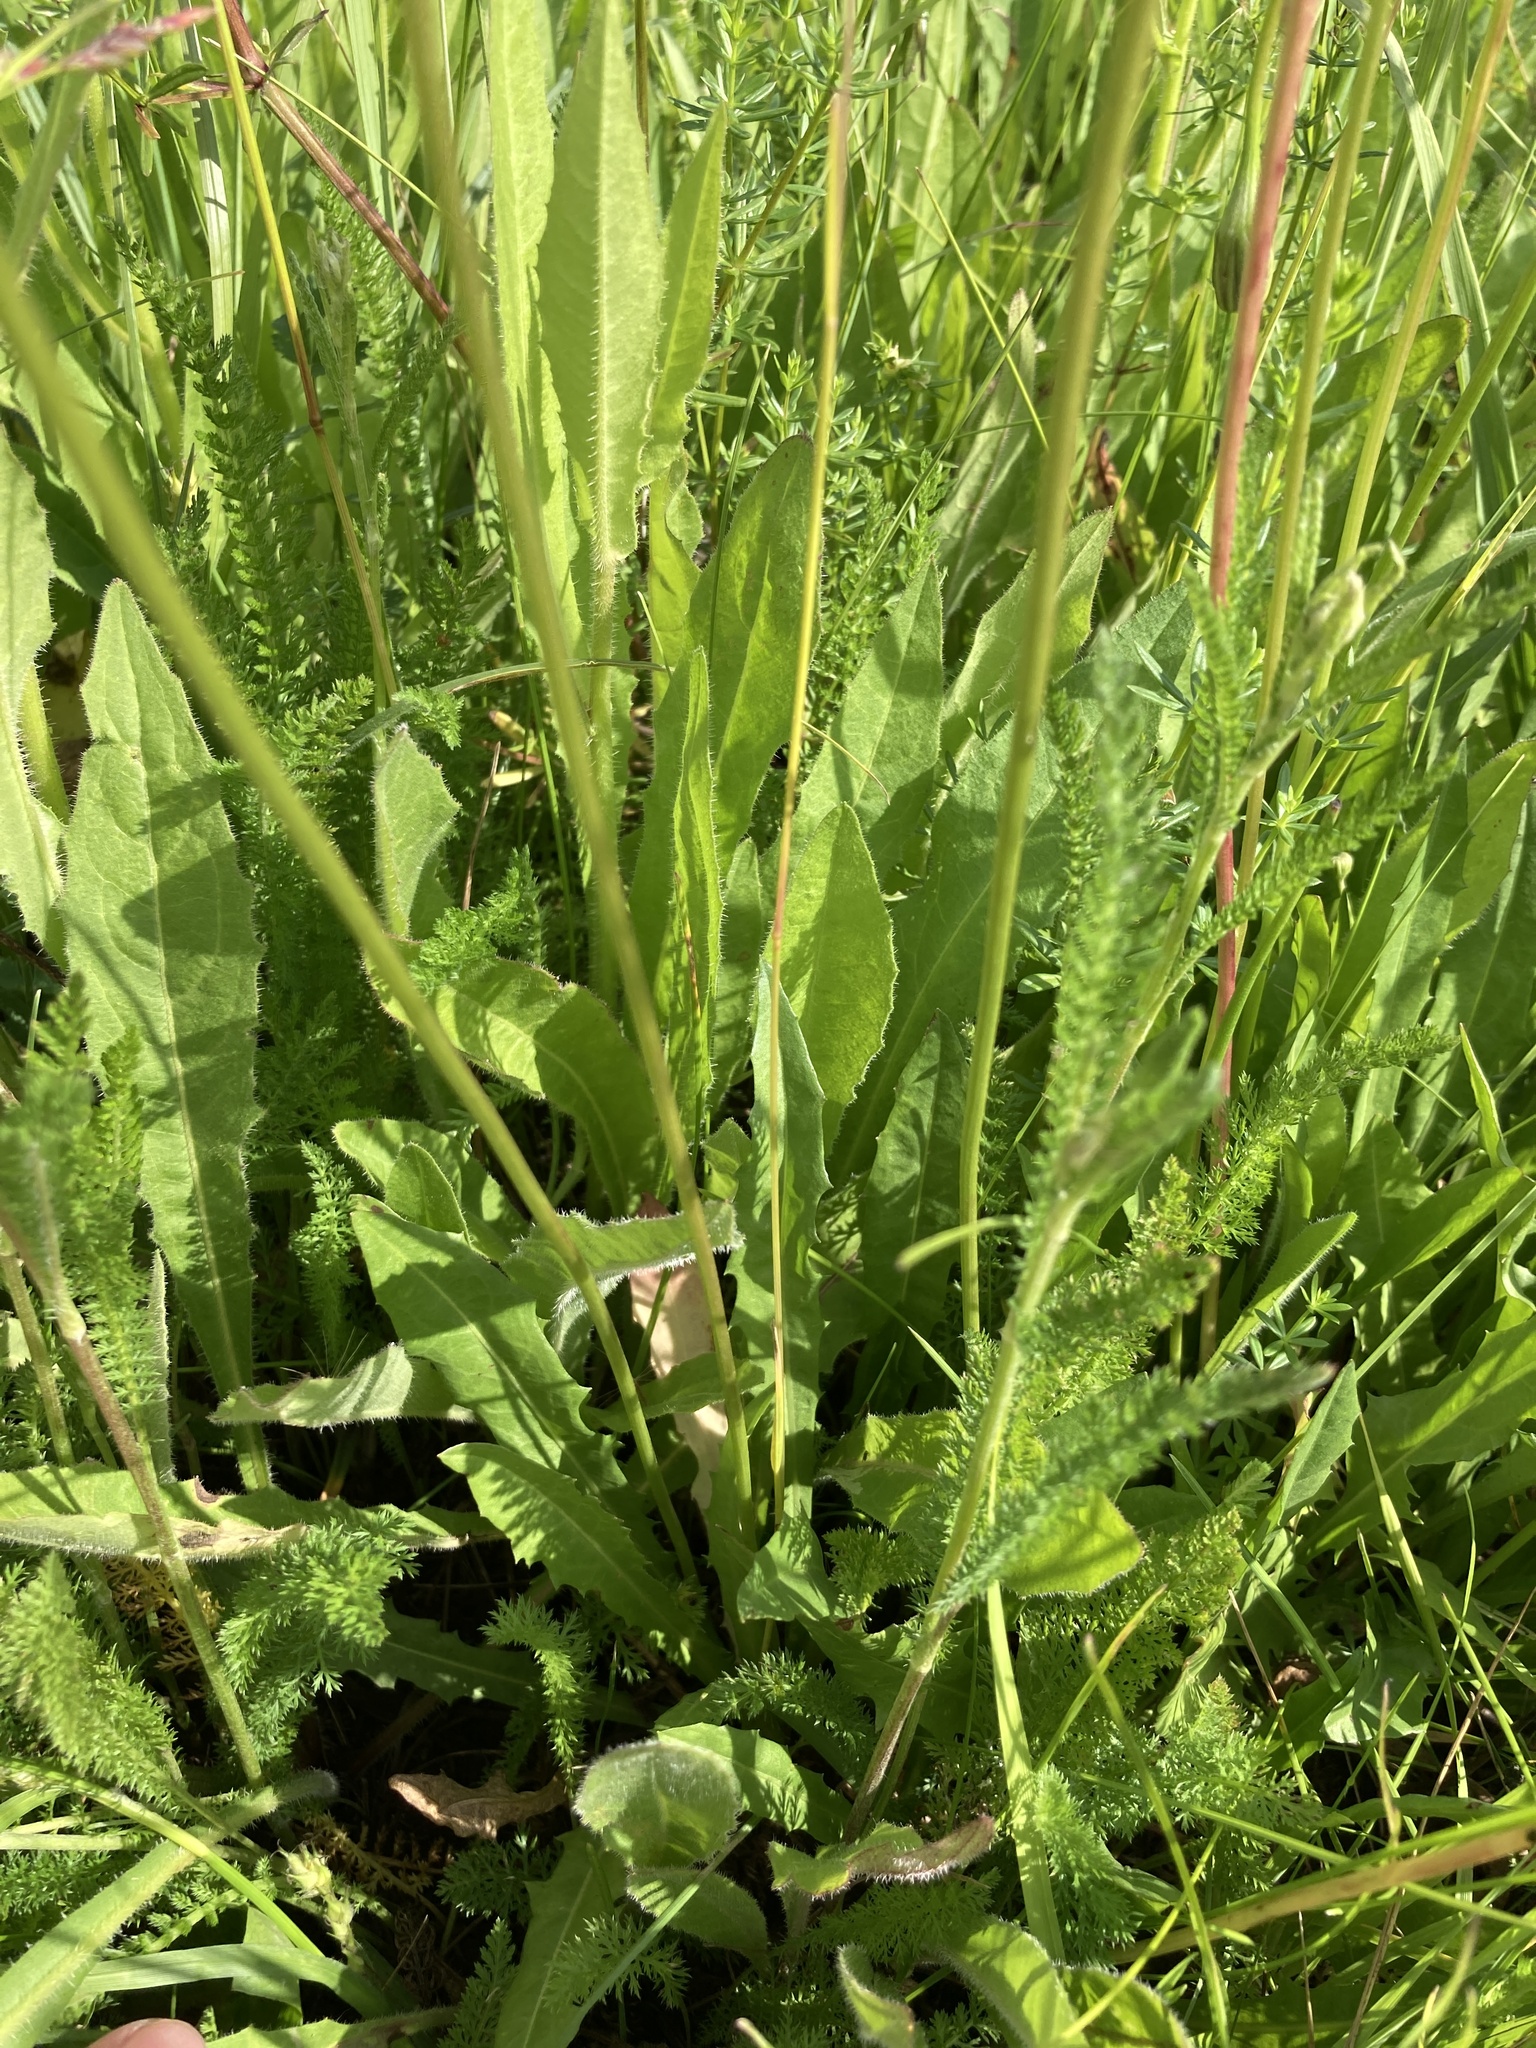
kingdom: Plantae
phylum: Tracheophyta
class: Magnoliopsida
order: Asterales
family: Asteraceae
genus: Leontodon
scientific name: Leontodon hispidus
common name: Rough hawkbit
